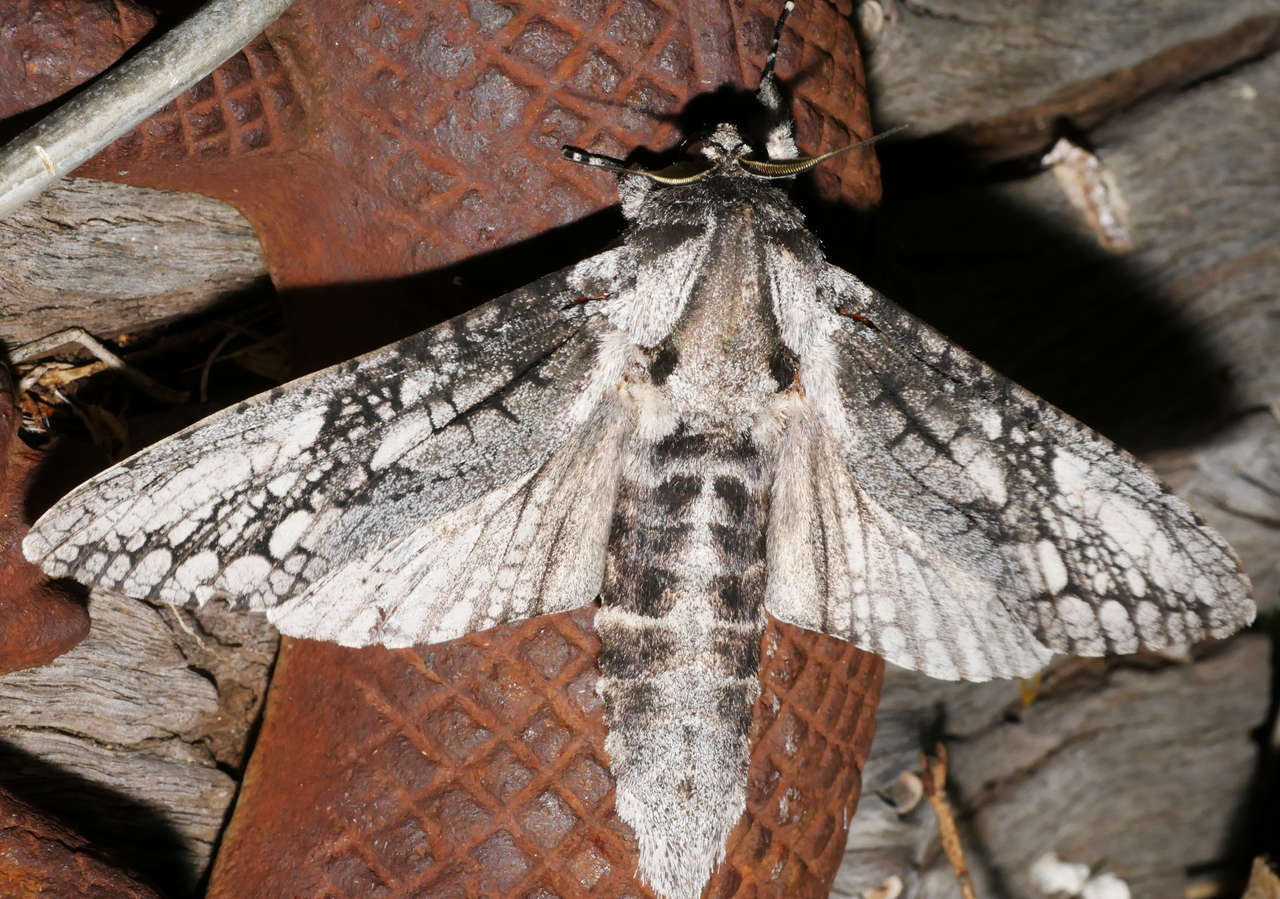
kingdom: Animalia
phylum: Arthropoda
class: Insecta
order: Lepidoptera
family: Cossidae
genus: Endoxyla
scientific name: Endoxyla lichenea
